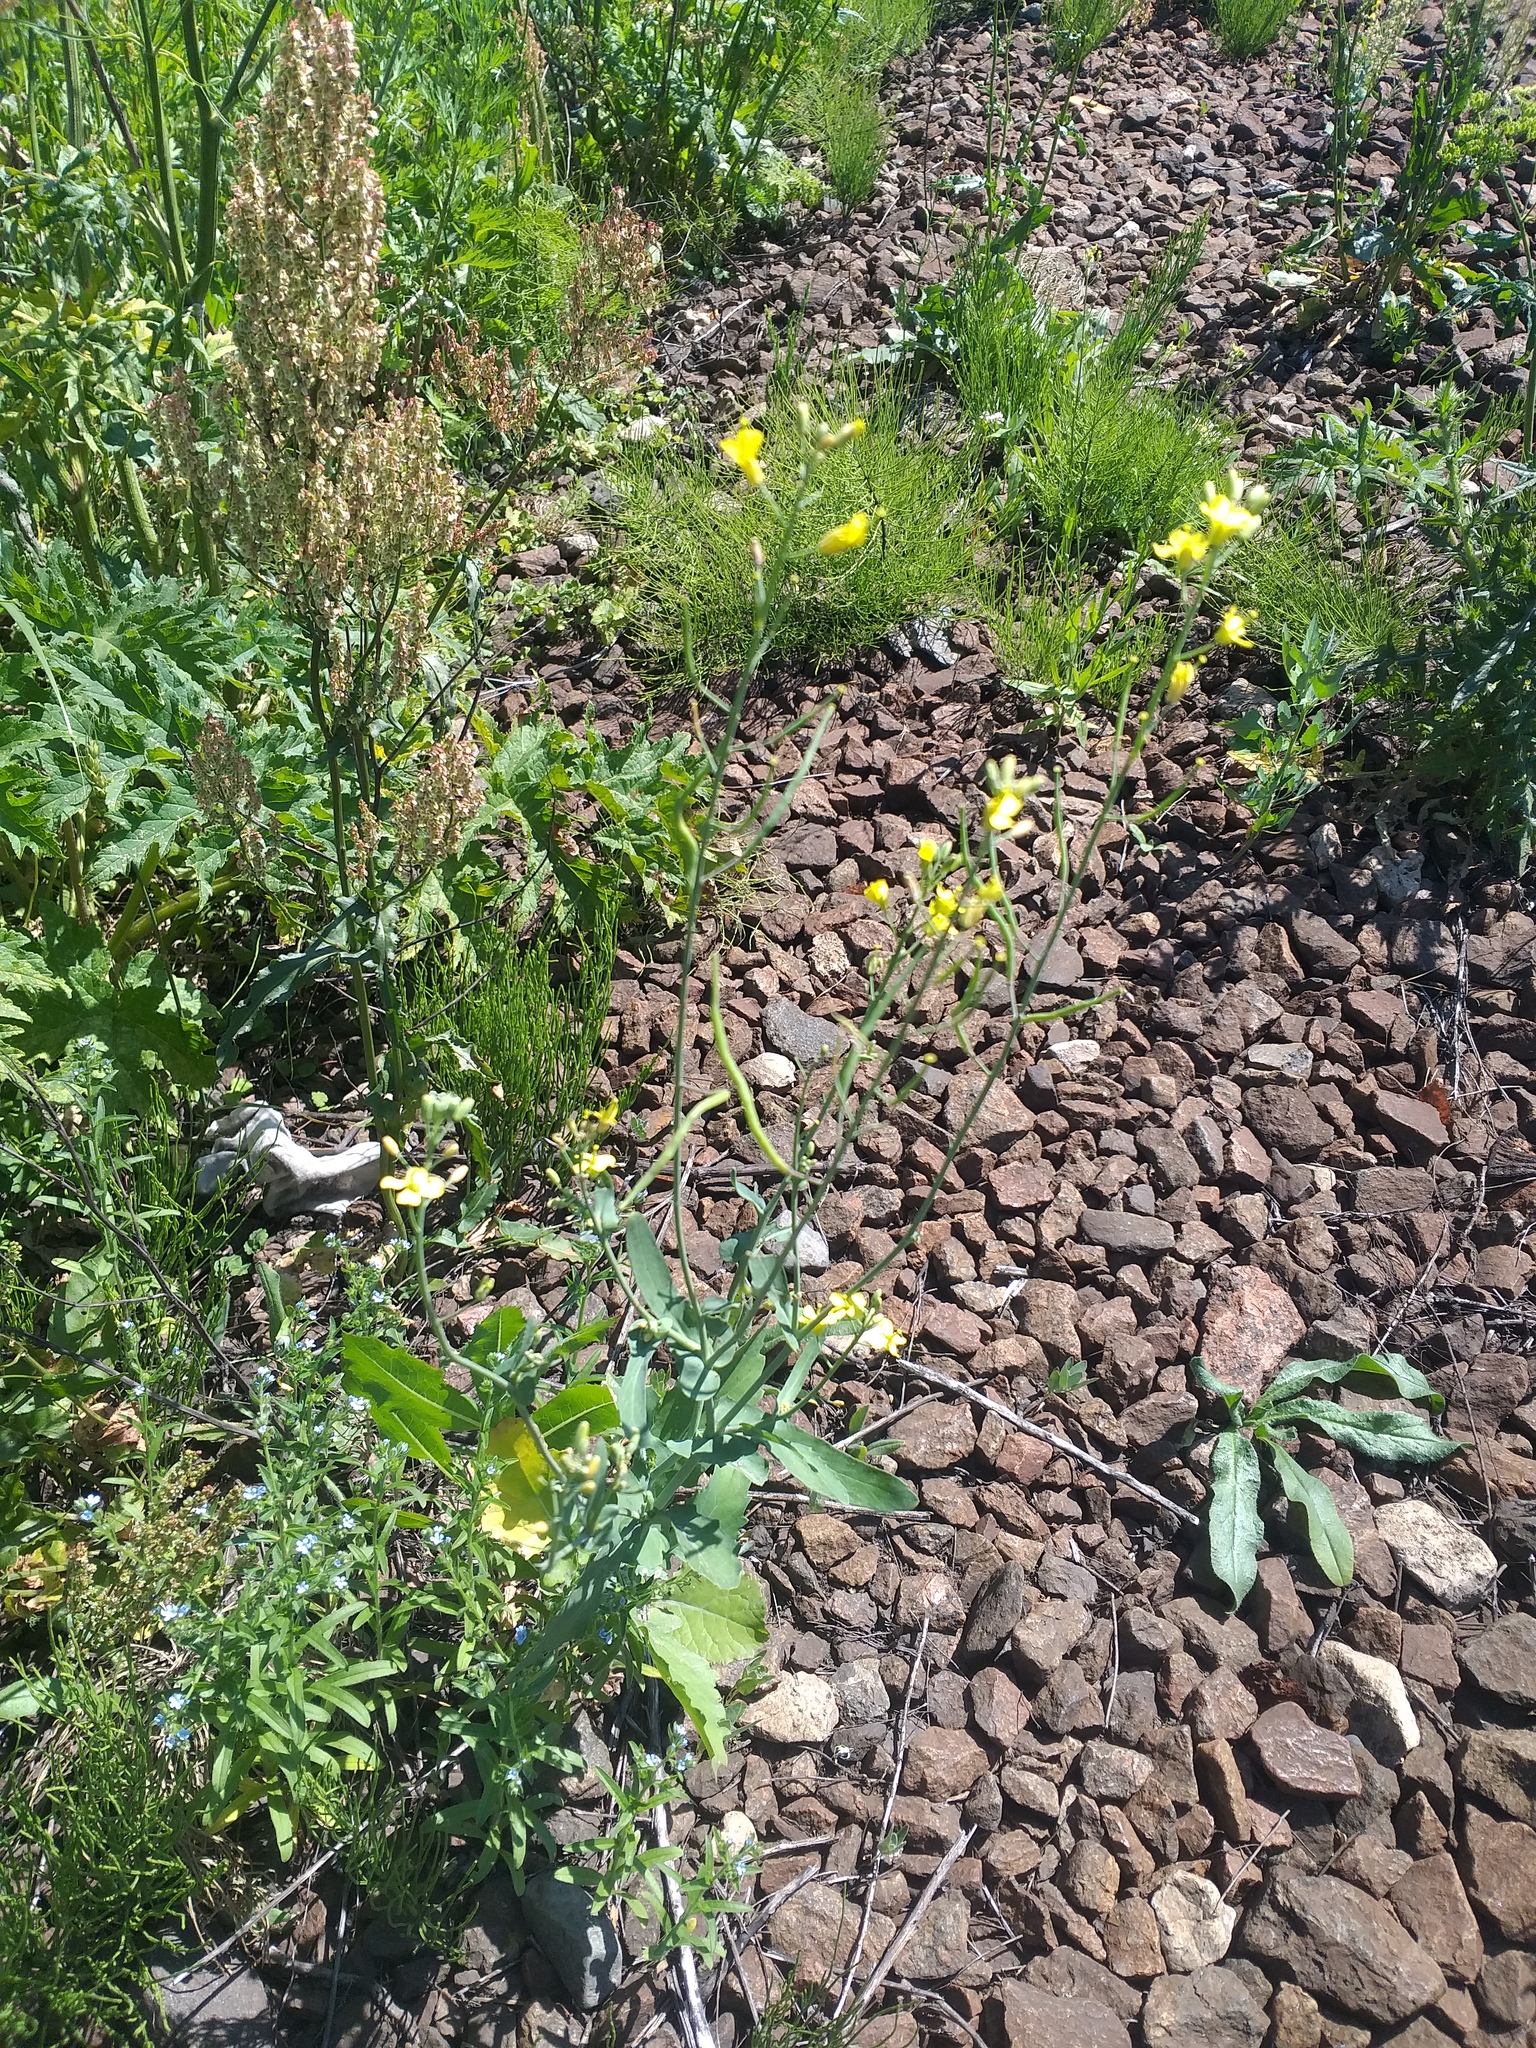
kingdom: Plantae
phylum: Tracheophyta
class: Magnoliopsida
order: Brassicales
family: Brassicaceae
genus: Brassica
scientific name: Brassica napus
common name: Rape
